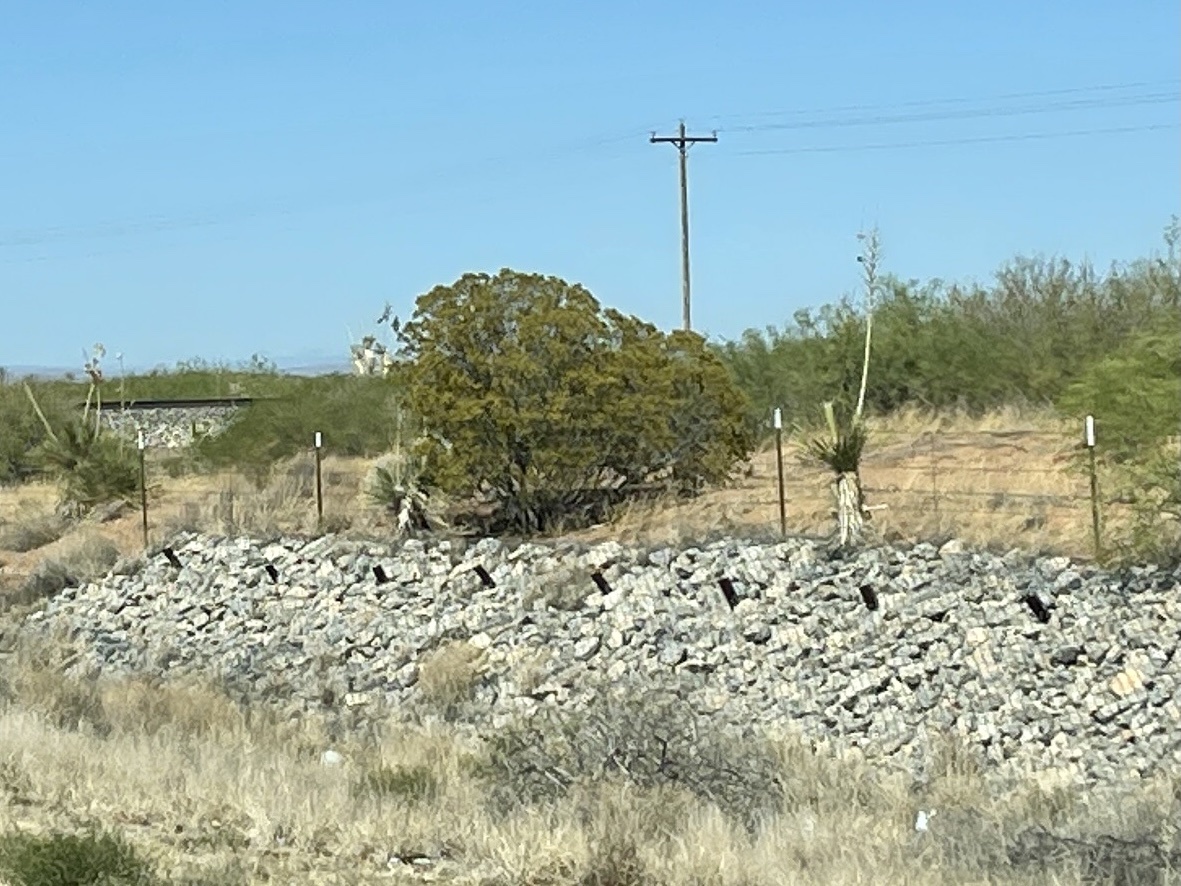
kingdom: Plantae
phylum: Tracheophyta
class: Magnoliopsida
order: Zygophyllales
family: Zygophyllaceae
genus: Larrea
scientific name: Larrea tridentata
